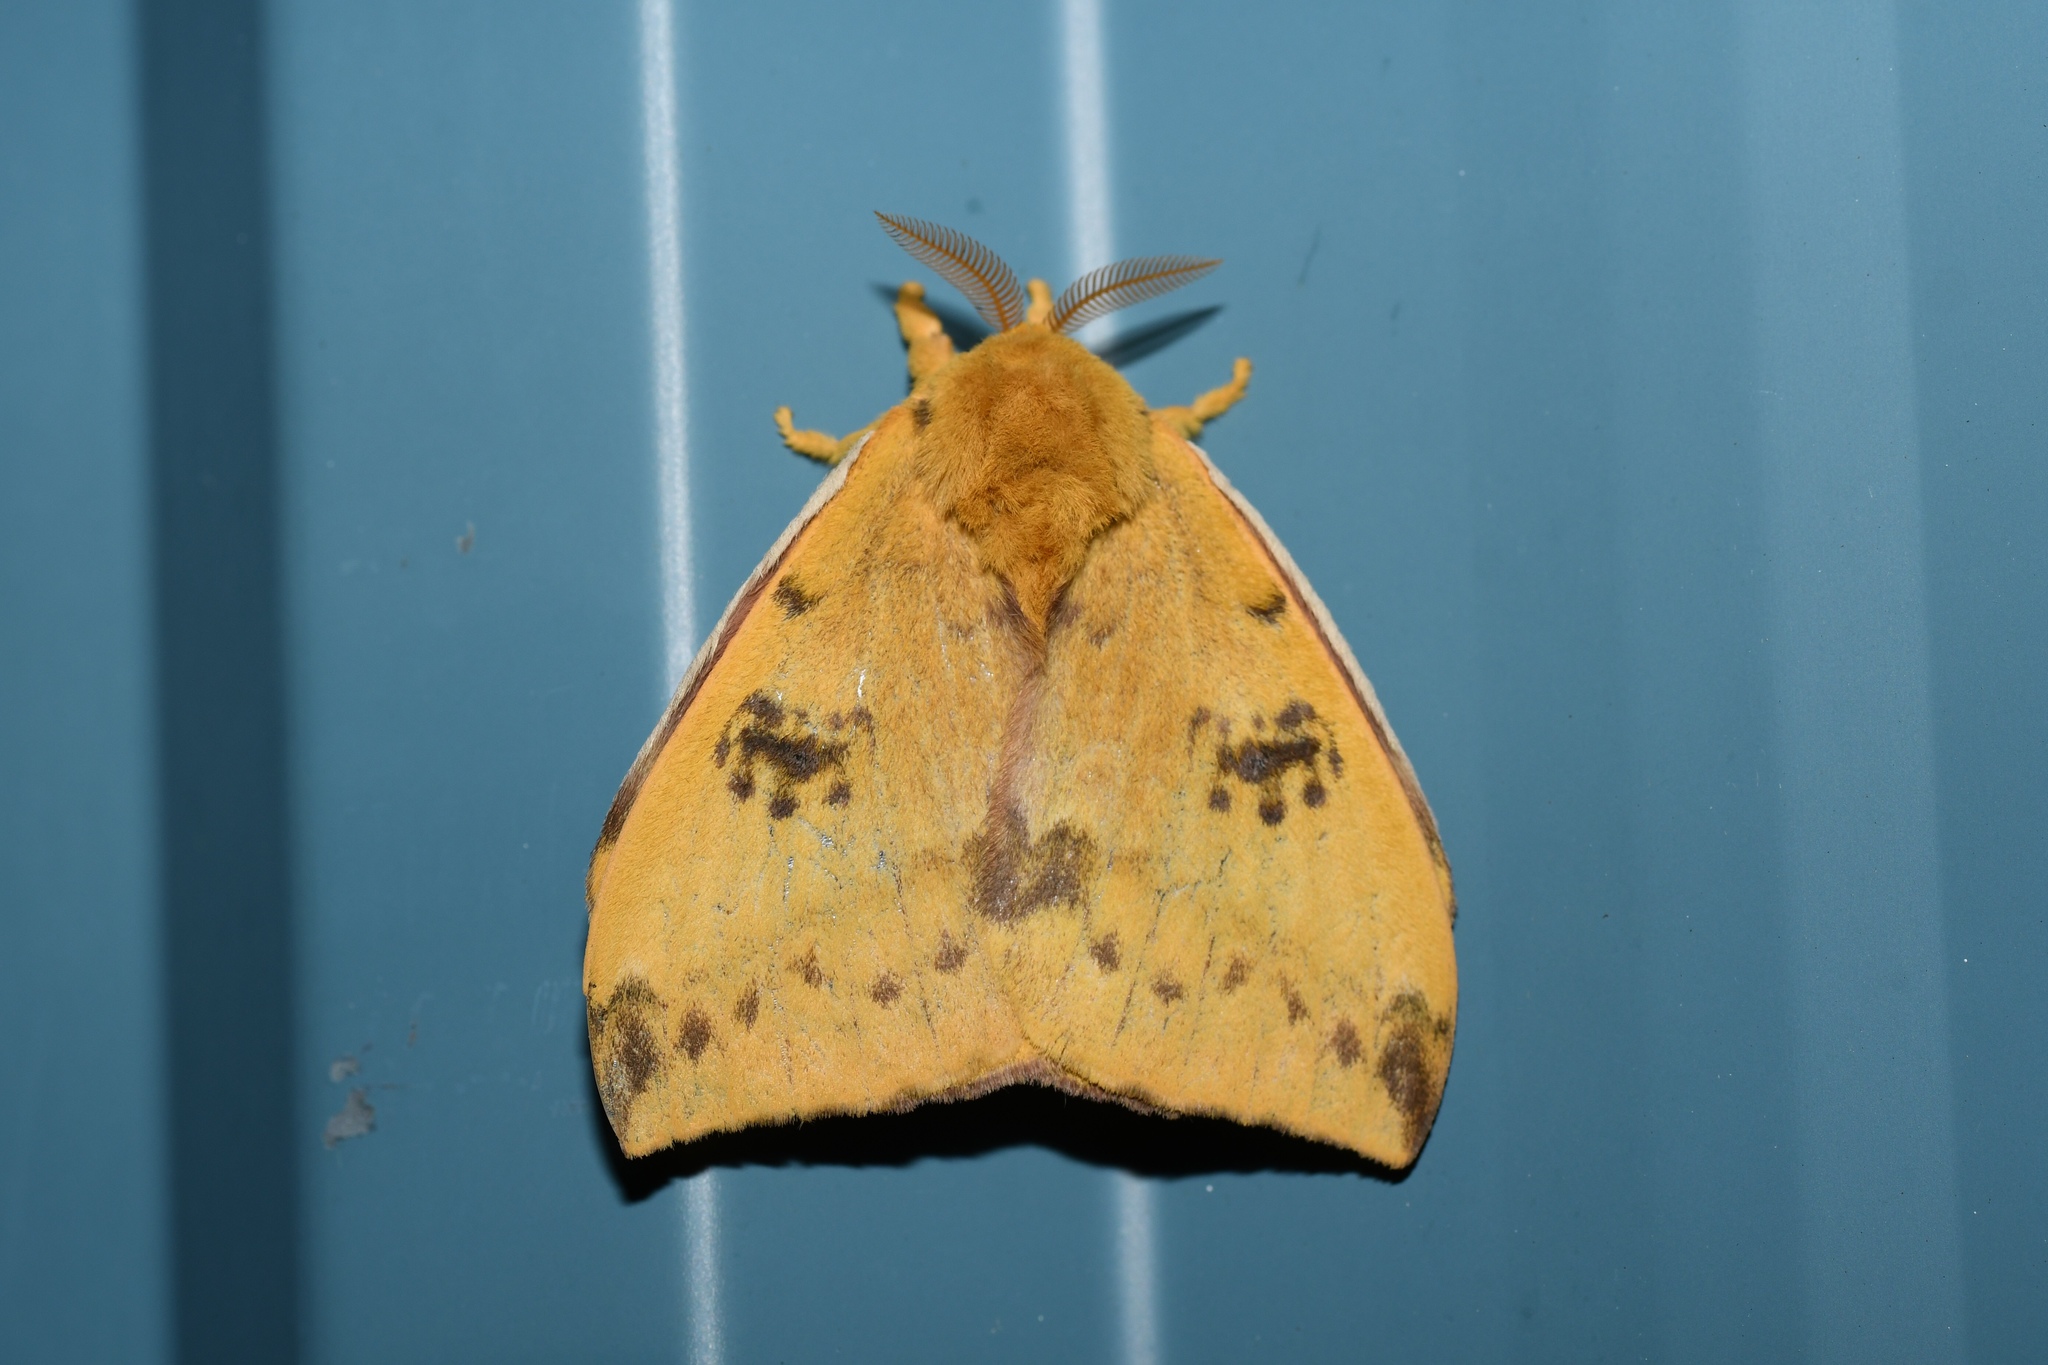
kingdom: Animalia
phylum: Arthropoda
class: Insecta
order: Lepidoptera
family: Saturniidae
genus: Automeris
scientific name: Automeris io
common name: Io moth
